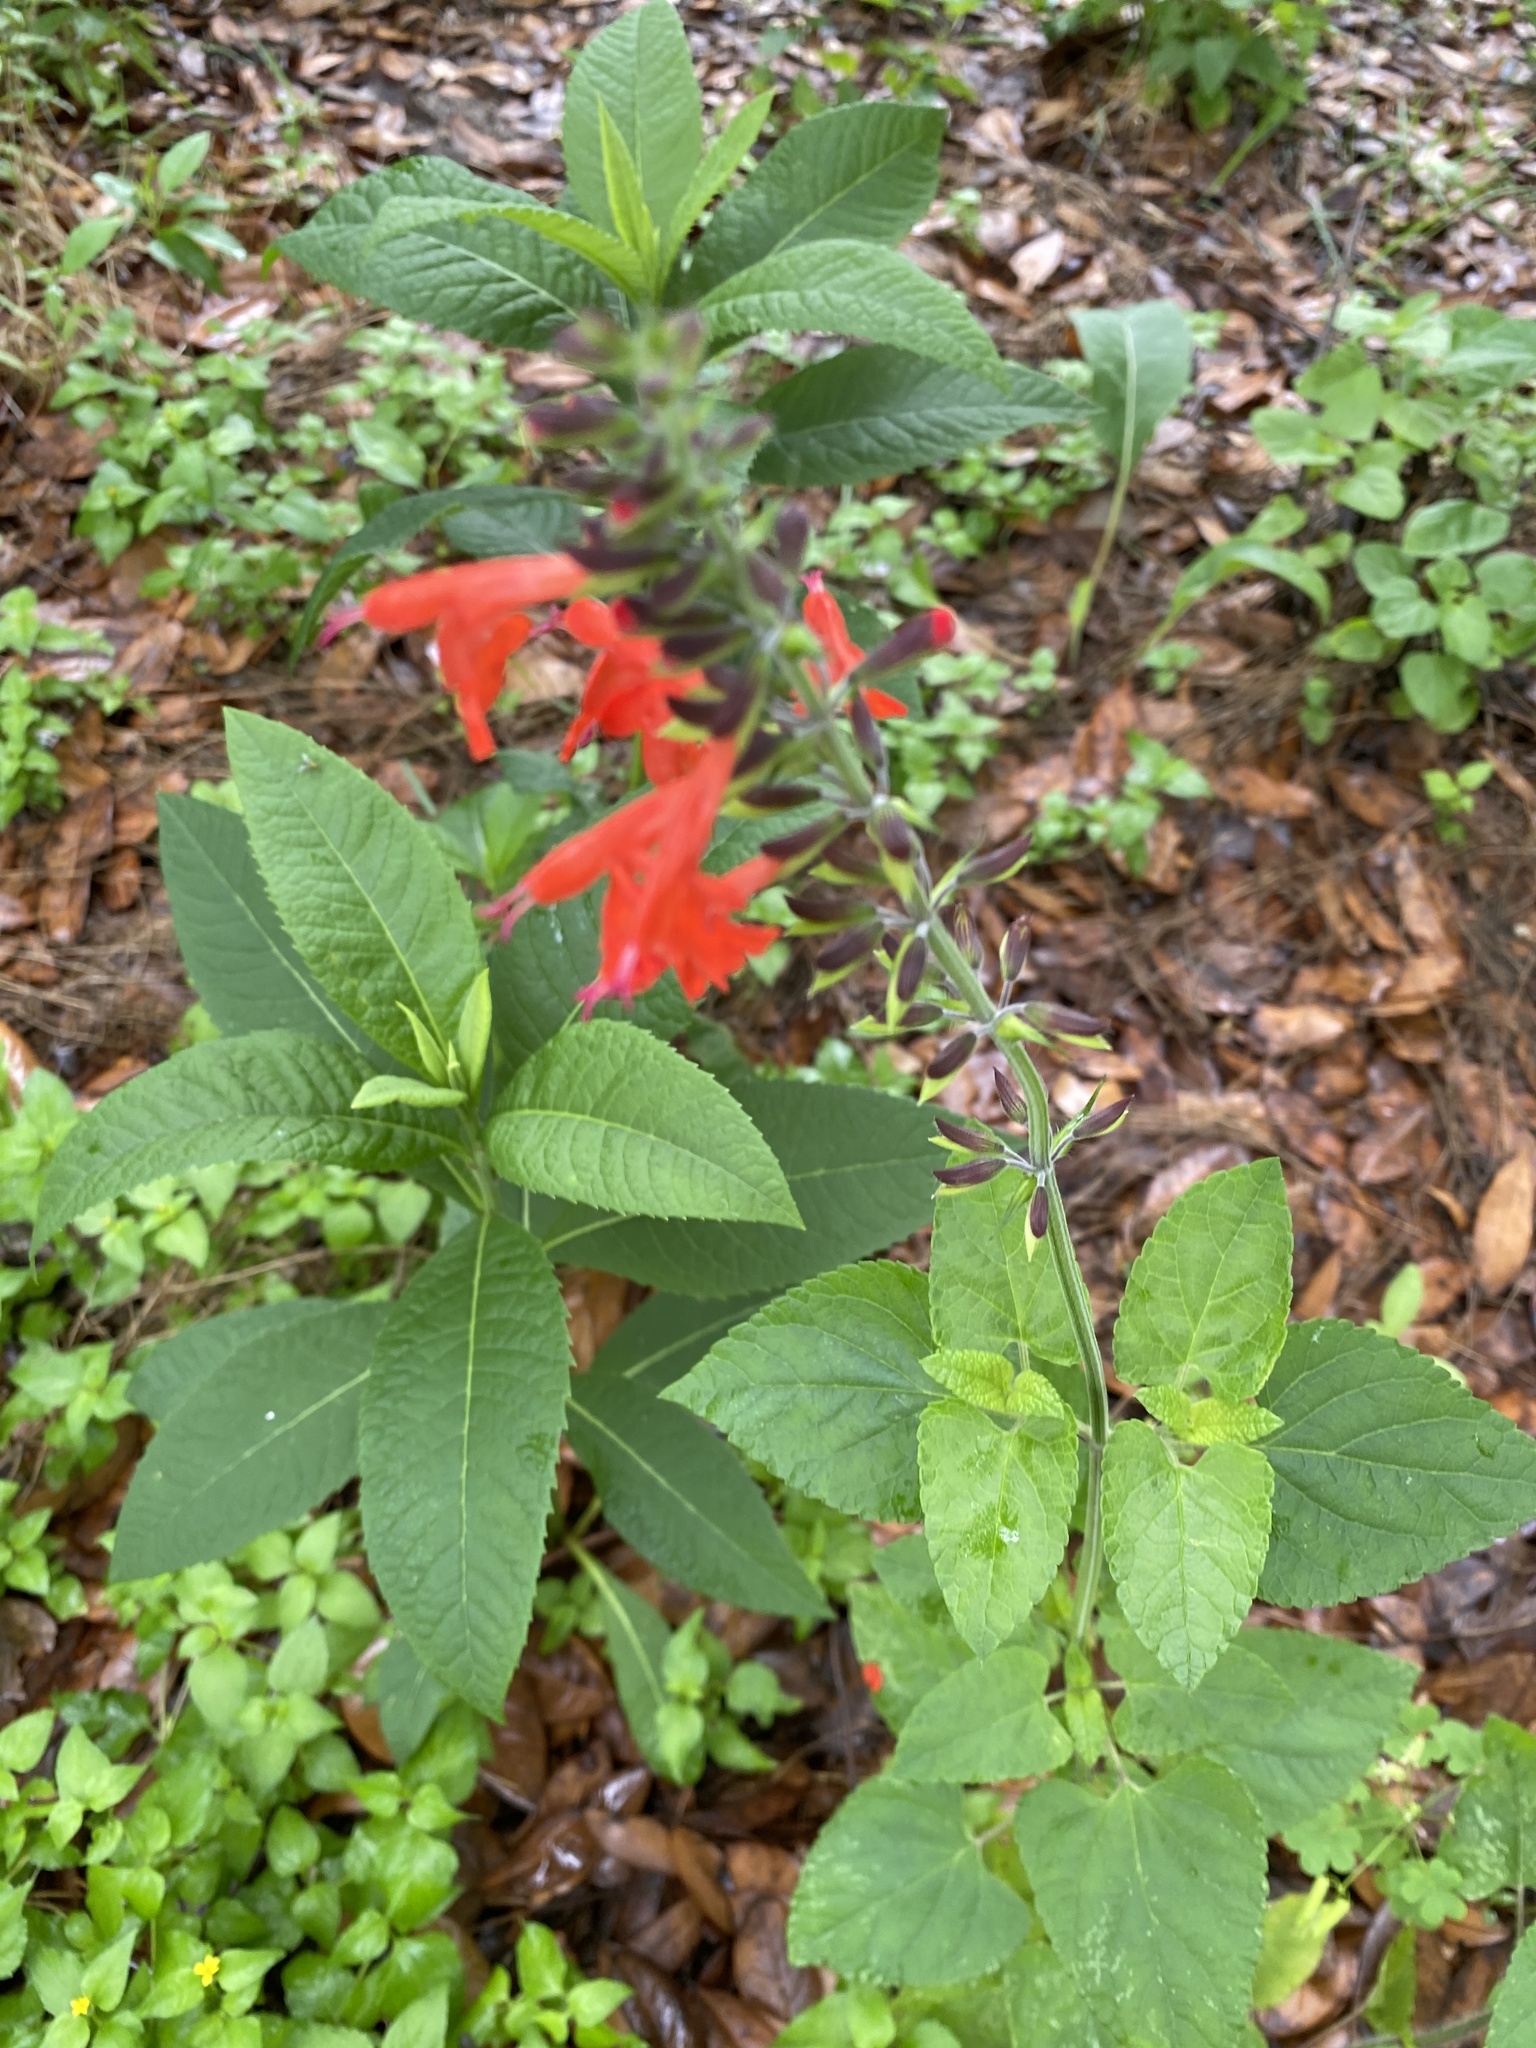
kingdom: Plantae
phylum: Tracheophyta
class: Magnoliopsida
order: Lamiales
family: Lamiaceae
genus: Salvia
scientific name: Salvia coccinea
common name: Blood sage
